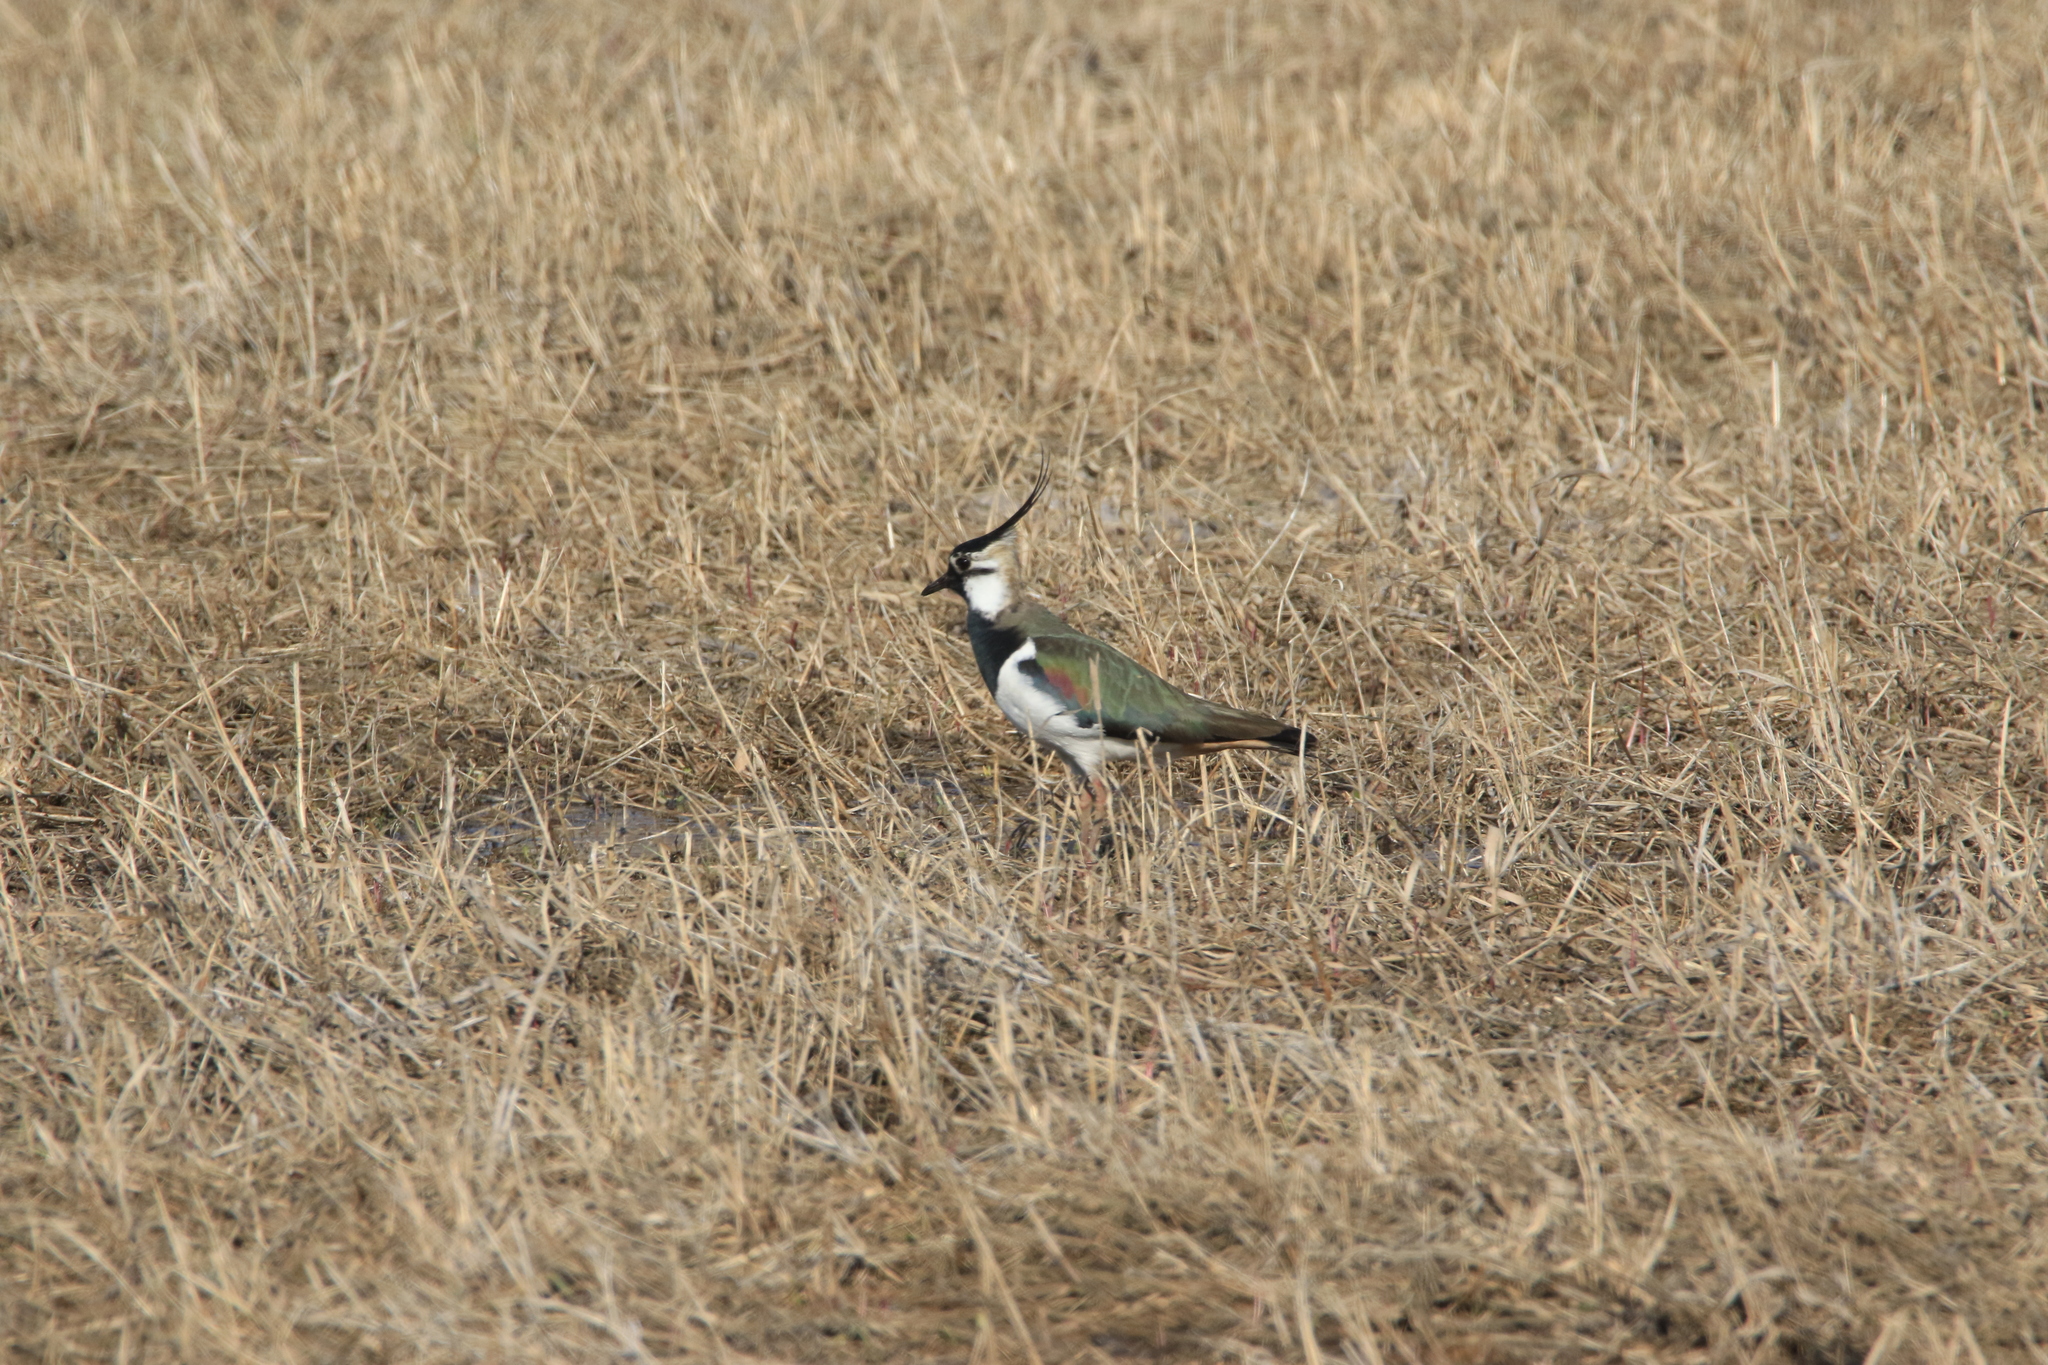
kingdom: Animalia
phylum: Chordata
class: Aves
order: Charadriiformes
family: Charadriidae
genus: Vanellus
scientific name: Vanellus vanellus
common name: Northern lapwing
